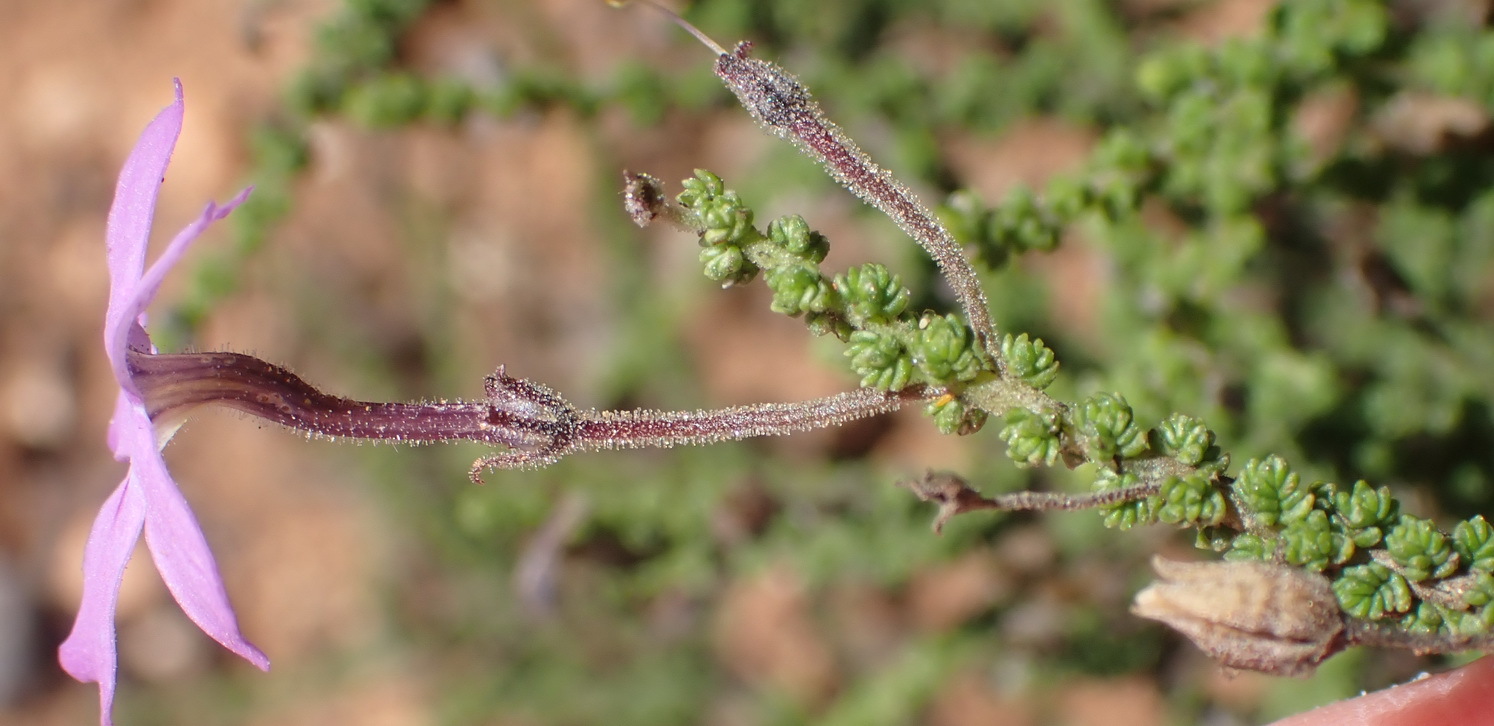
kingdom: Plantae
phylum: Tracheophyta
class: Magnoliopsida
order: Lamiales
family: Scrophulariaceae
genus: Jamesbrittenia
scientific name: Jamesbrittenia microphylla
